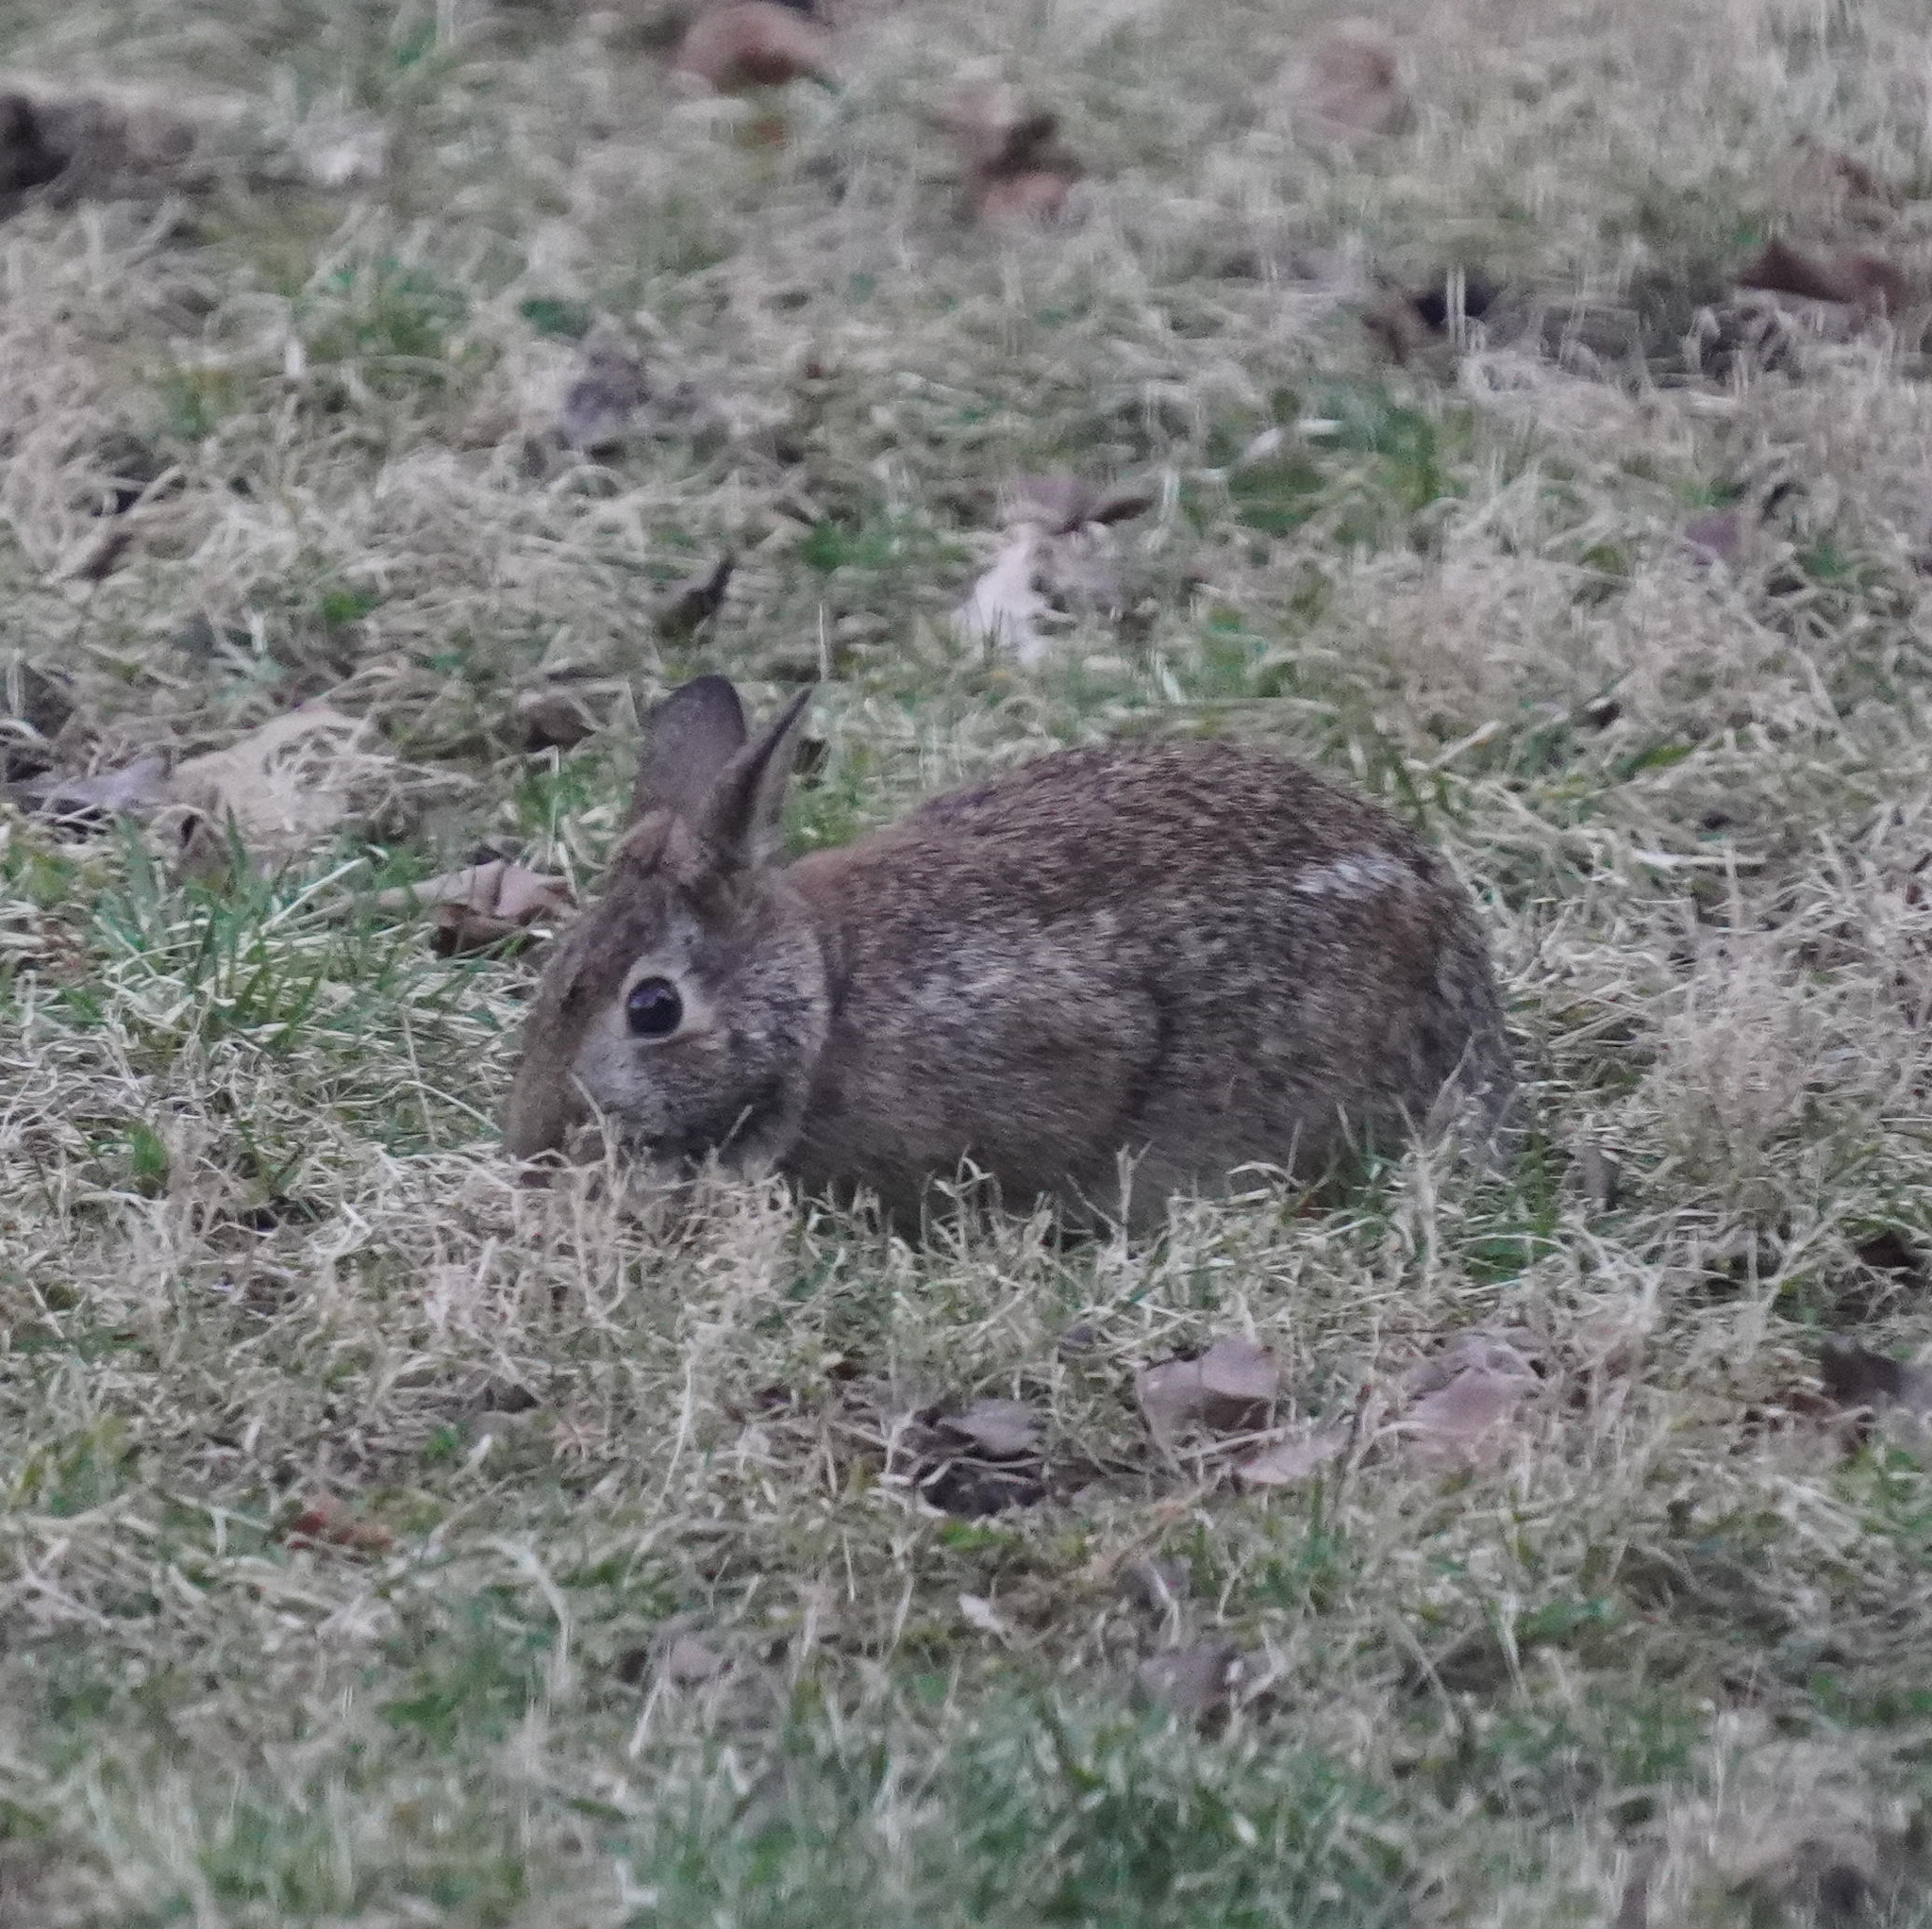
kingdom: Animalia
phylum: Chordata
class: Mammalia
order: Lagomorpha
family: Leporidae
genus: Sylvilagus
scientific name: Sylvilagus floridanus
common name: Eastern cottontail
